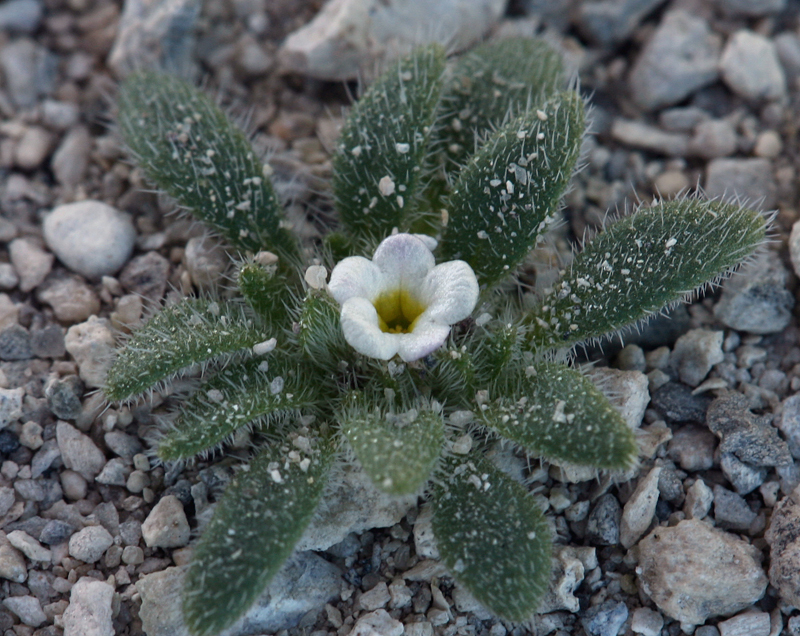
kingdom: Plantae
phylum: Tracheophyta
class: Magnoliopsida
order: Boraginales
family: Namaceae
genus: Nama
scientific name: Nama densa
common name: Leafy nama
